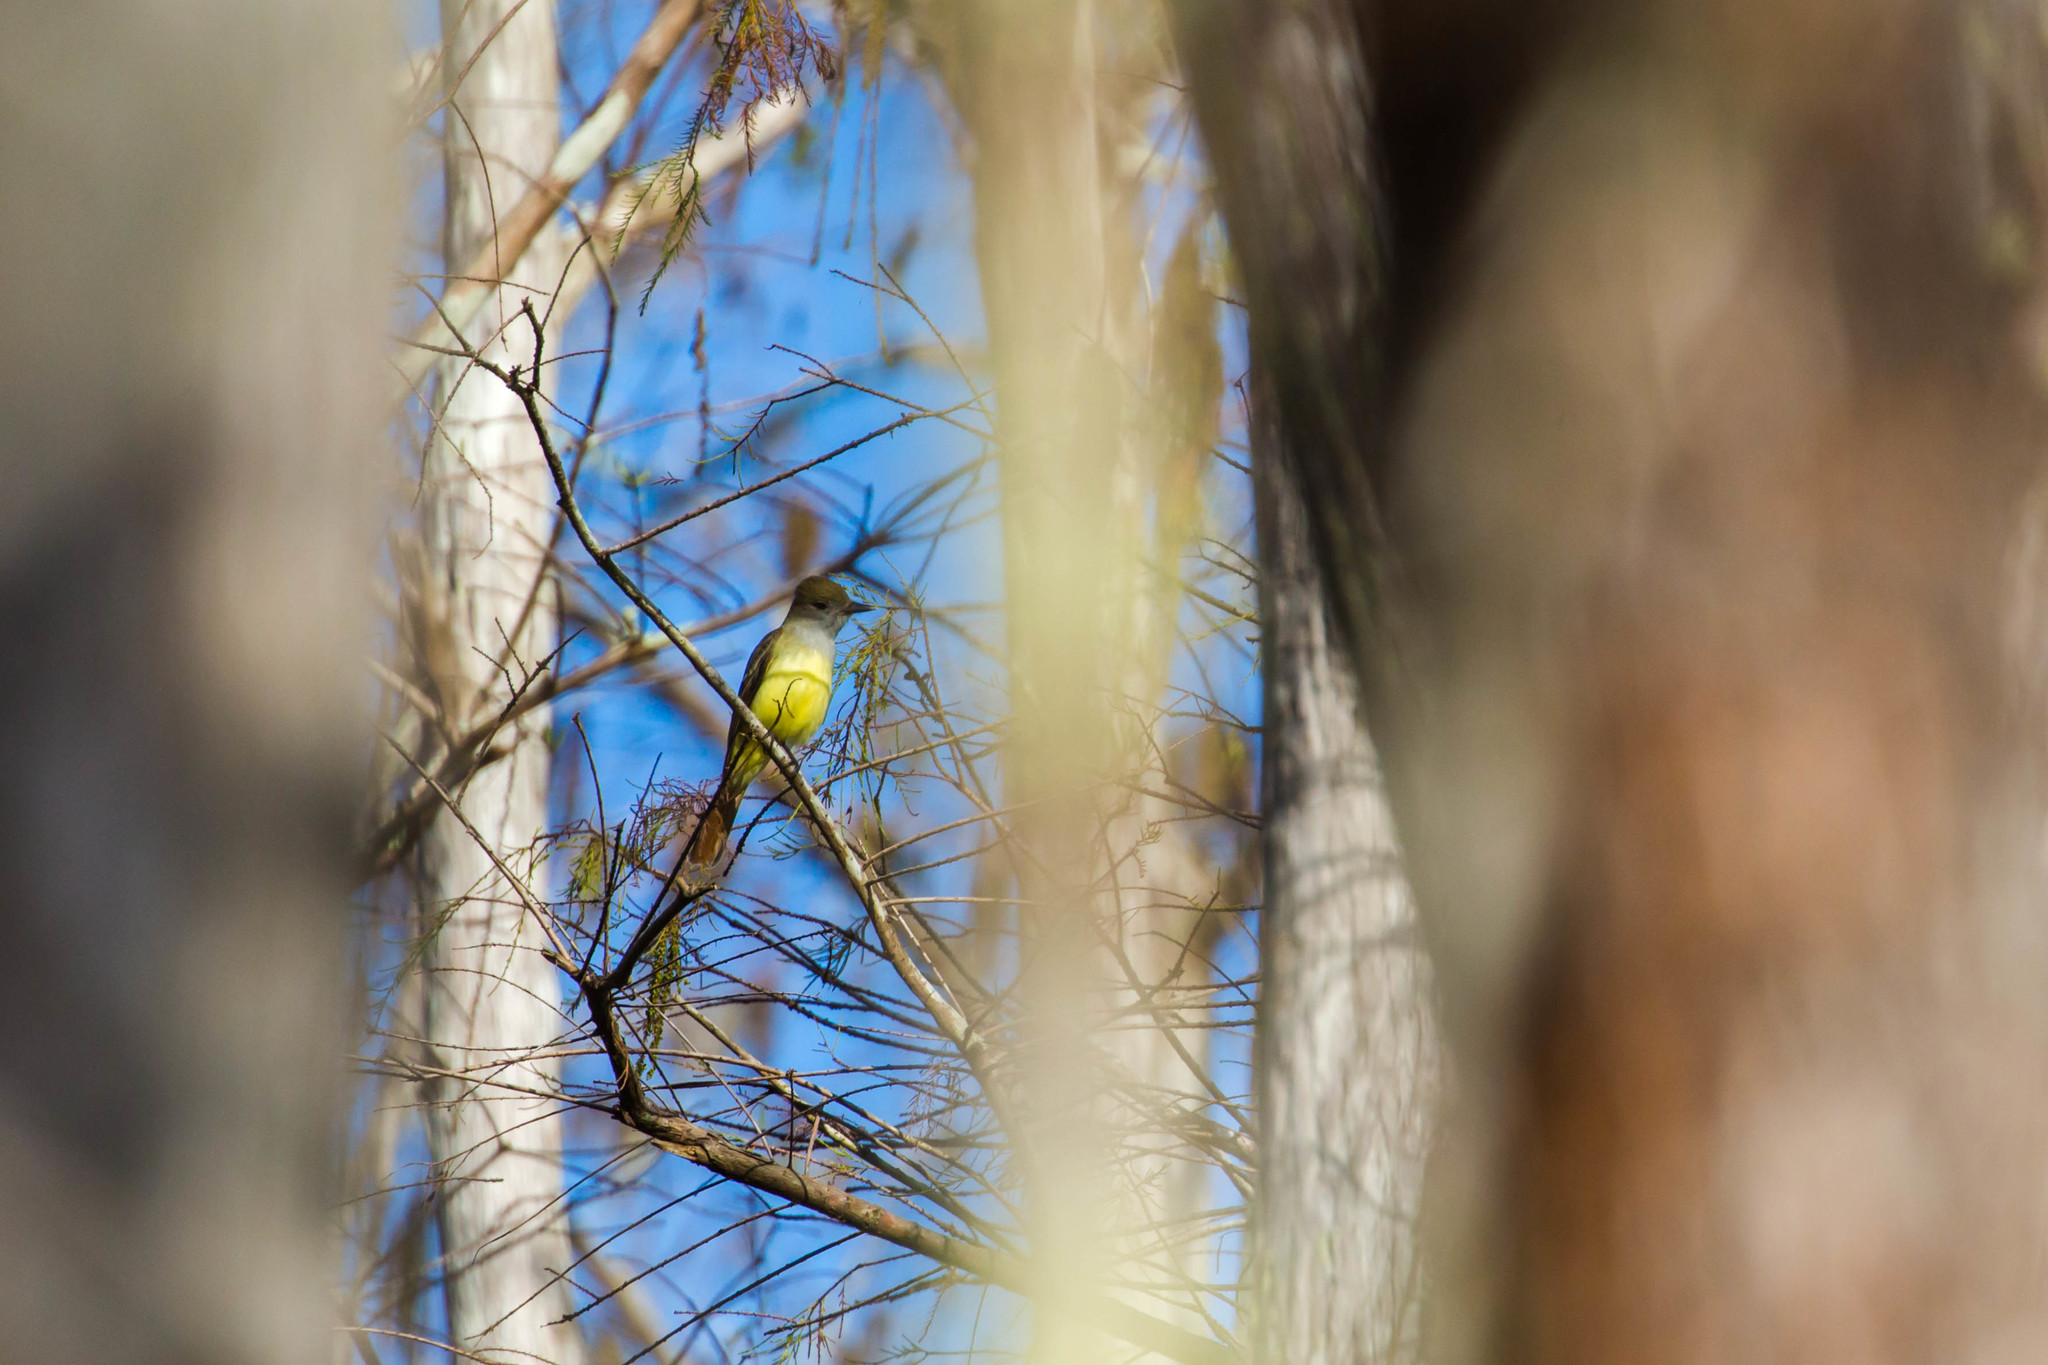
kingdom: Animalia
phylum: Chordata
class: Aves
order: Passeriformes
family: Tyrannidae
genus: Myiarchus
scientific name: Myiarchus crinitus
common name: Great crested flycatcher
